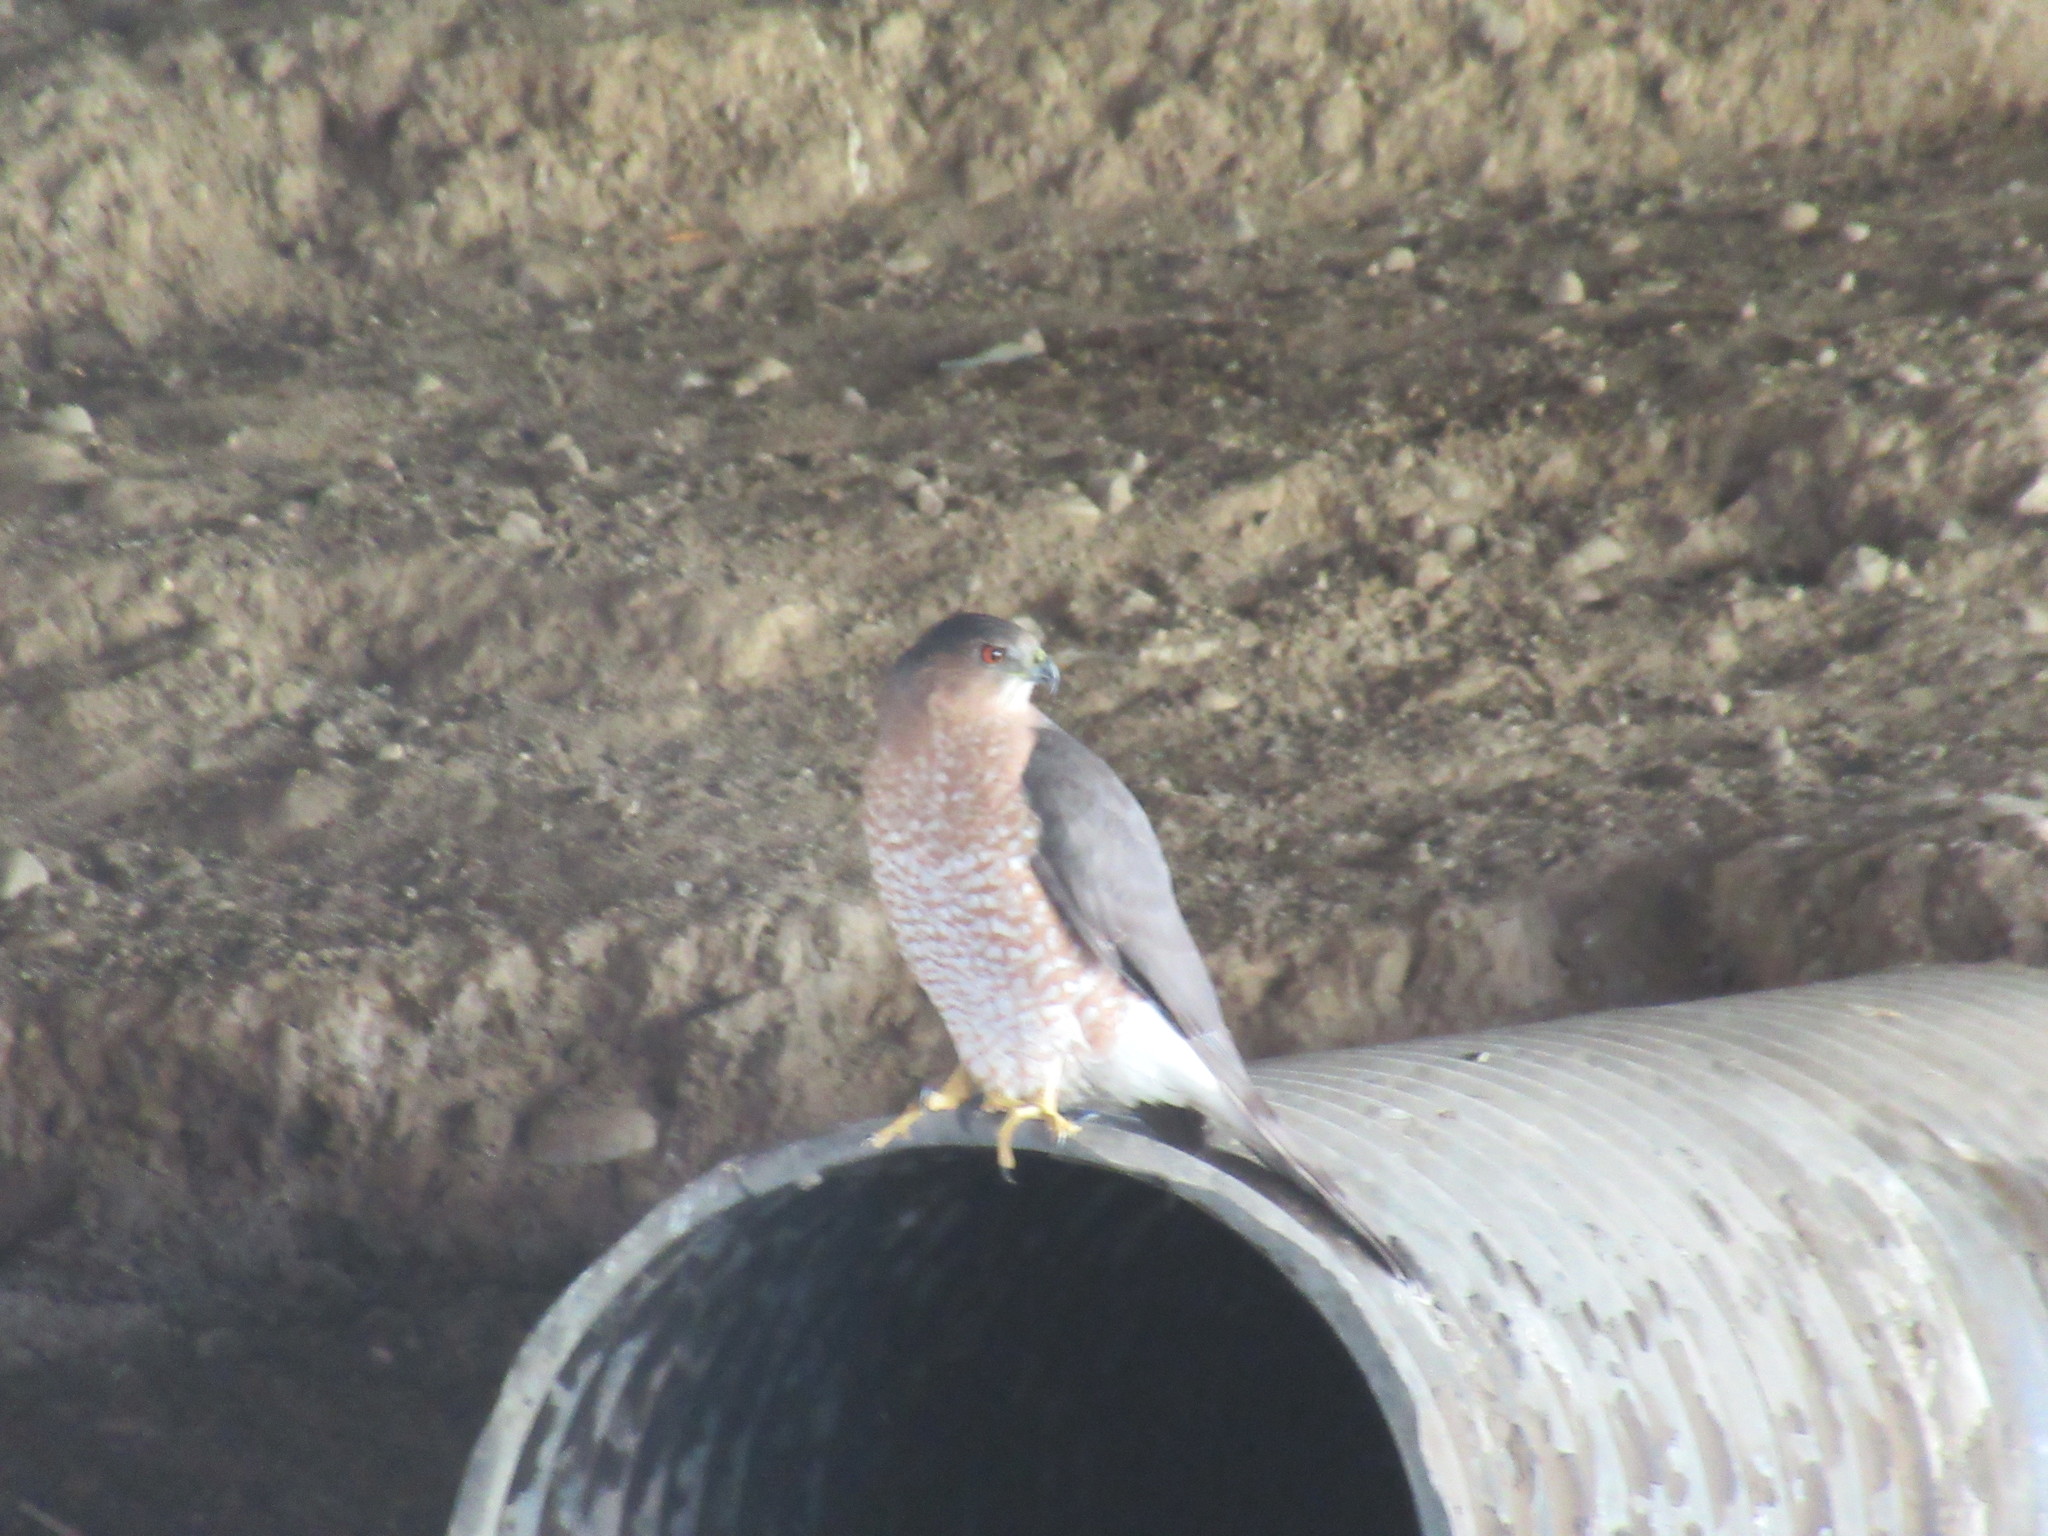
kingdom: Animalia
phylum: Chordata
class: Aves
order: Accipitriformes
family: Accipitridae
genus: Accipiter
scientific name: Accipiter cooperii
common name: Cooper's hawk
